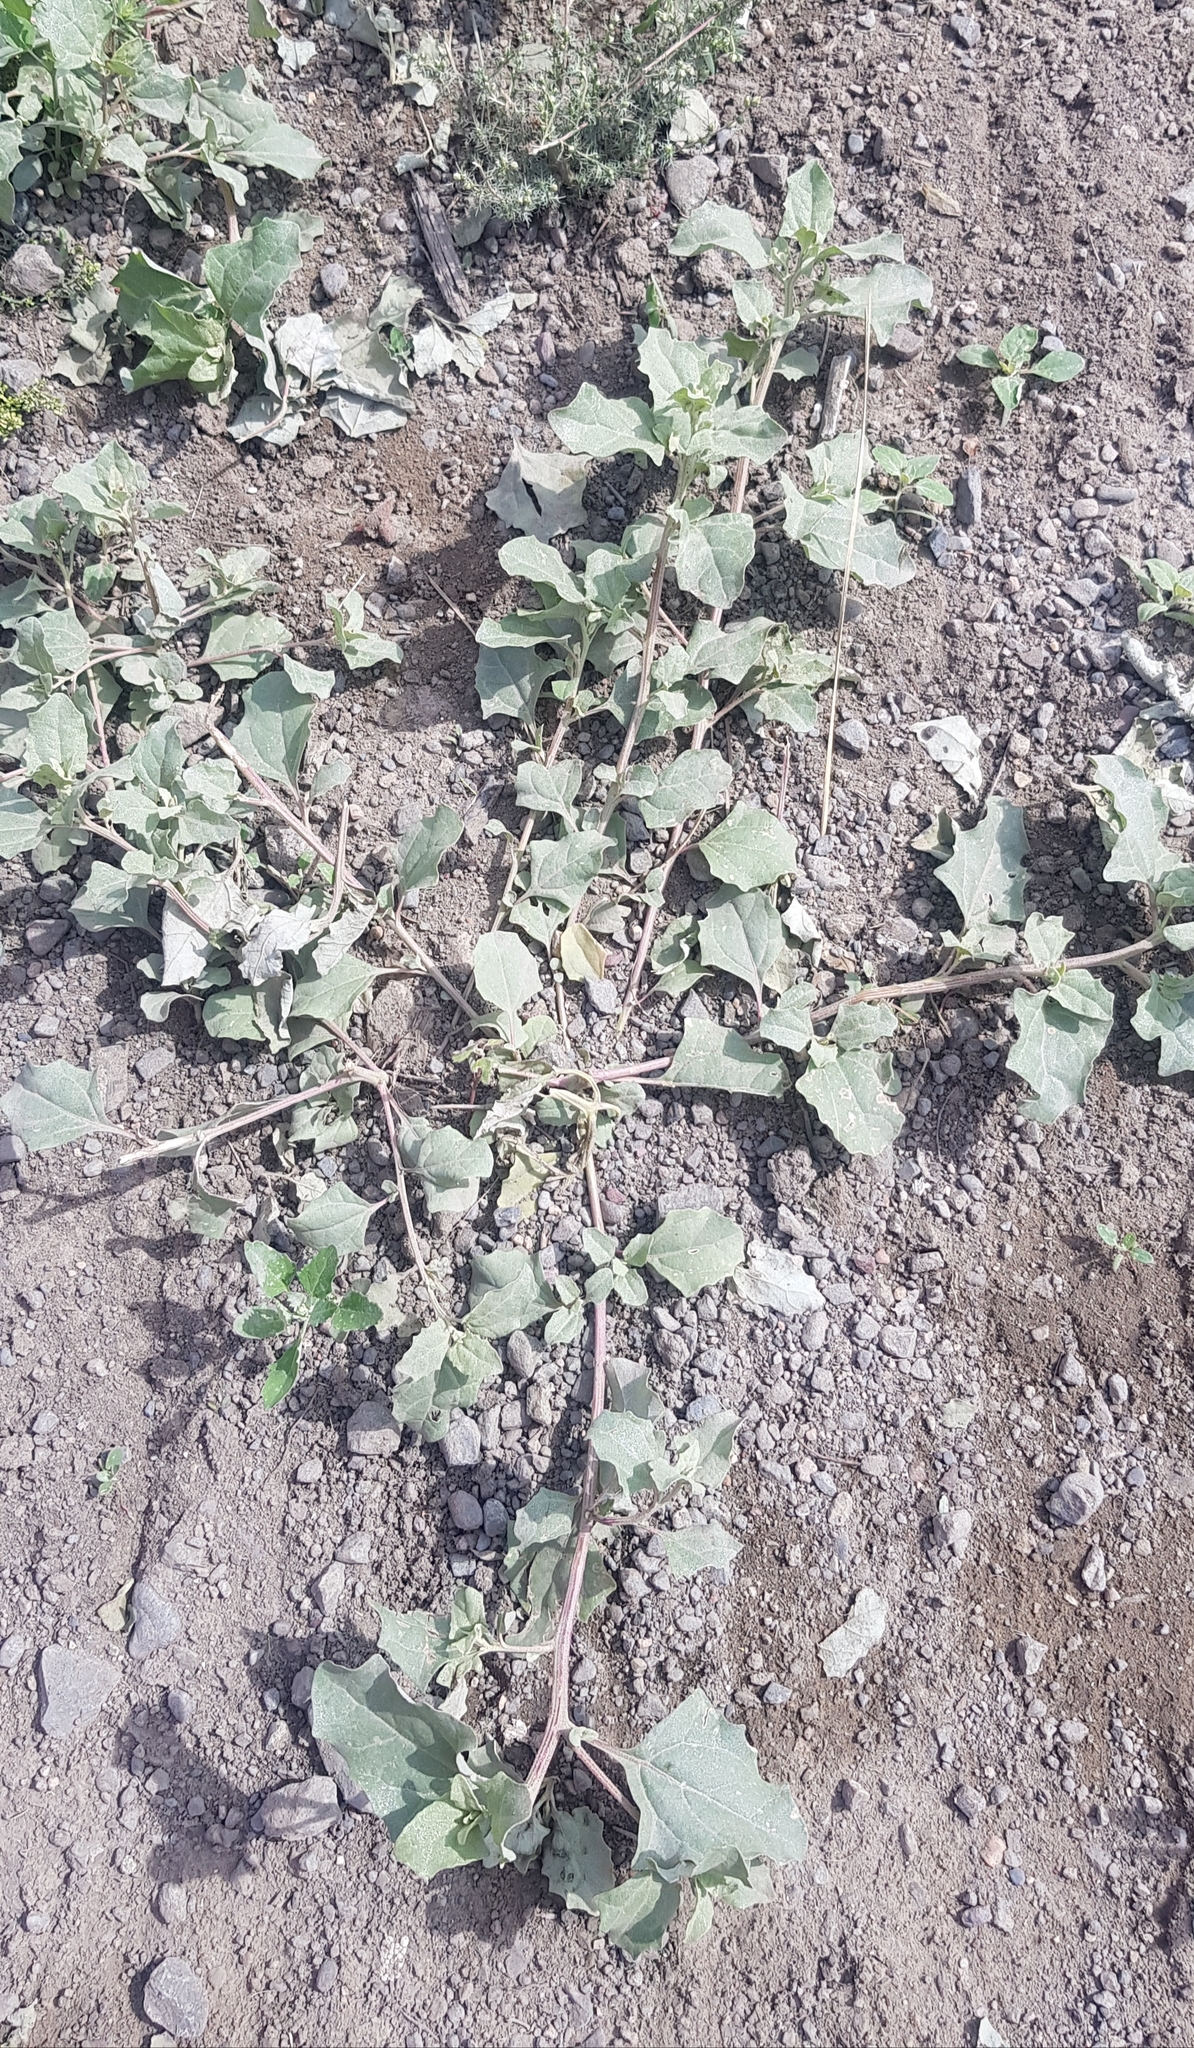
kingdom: Plantae
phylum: Tracheophyta
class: Magnoliopsida
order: Caryophyllales
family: Amaranthaceae
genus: Atriplex
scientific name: Atriplex sibirica
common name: Siberian saltbush
